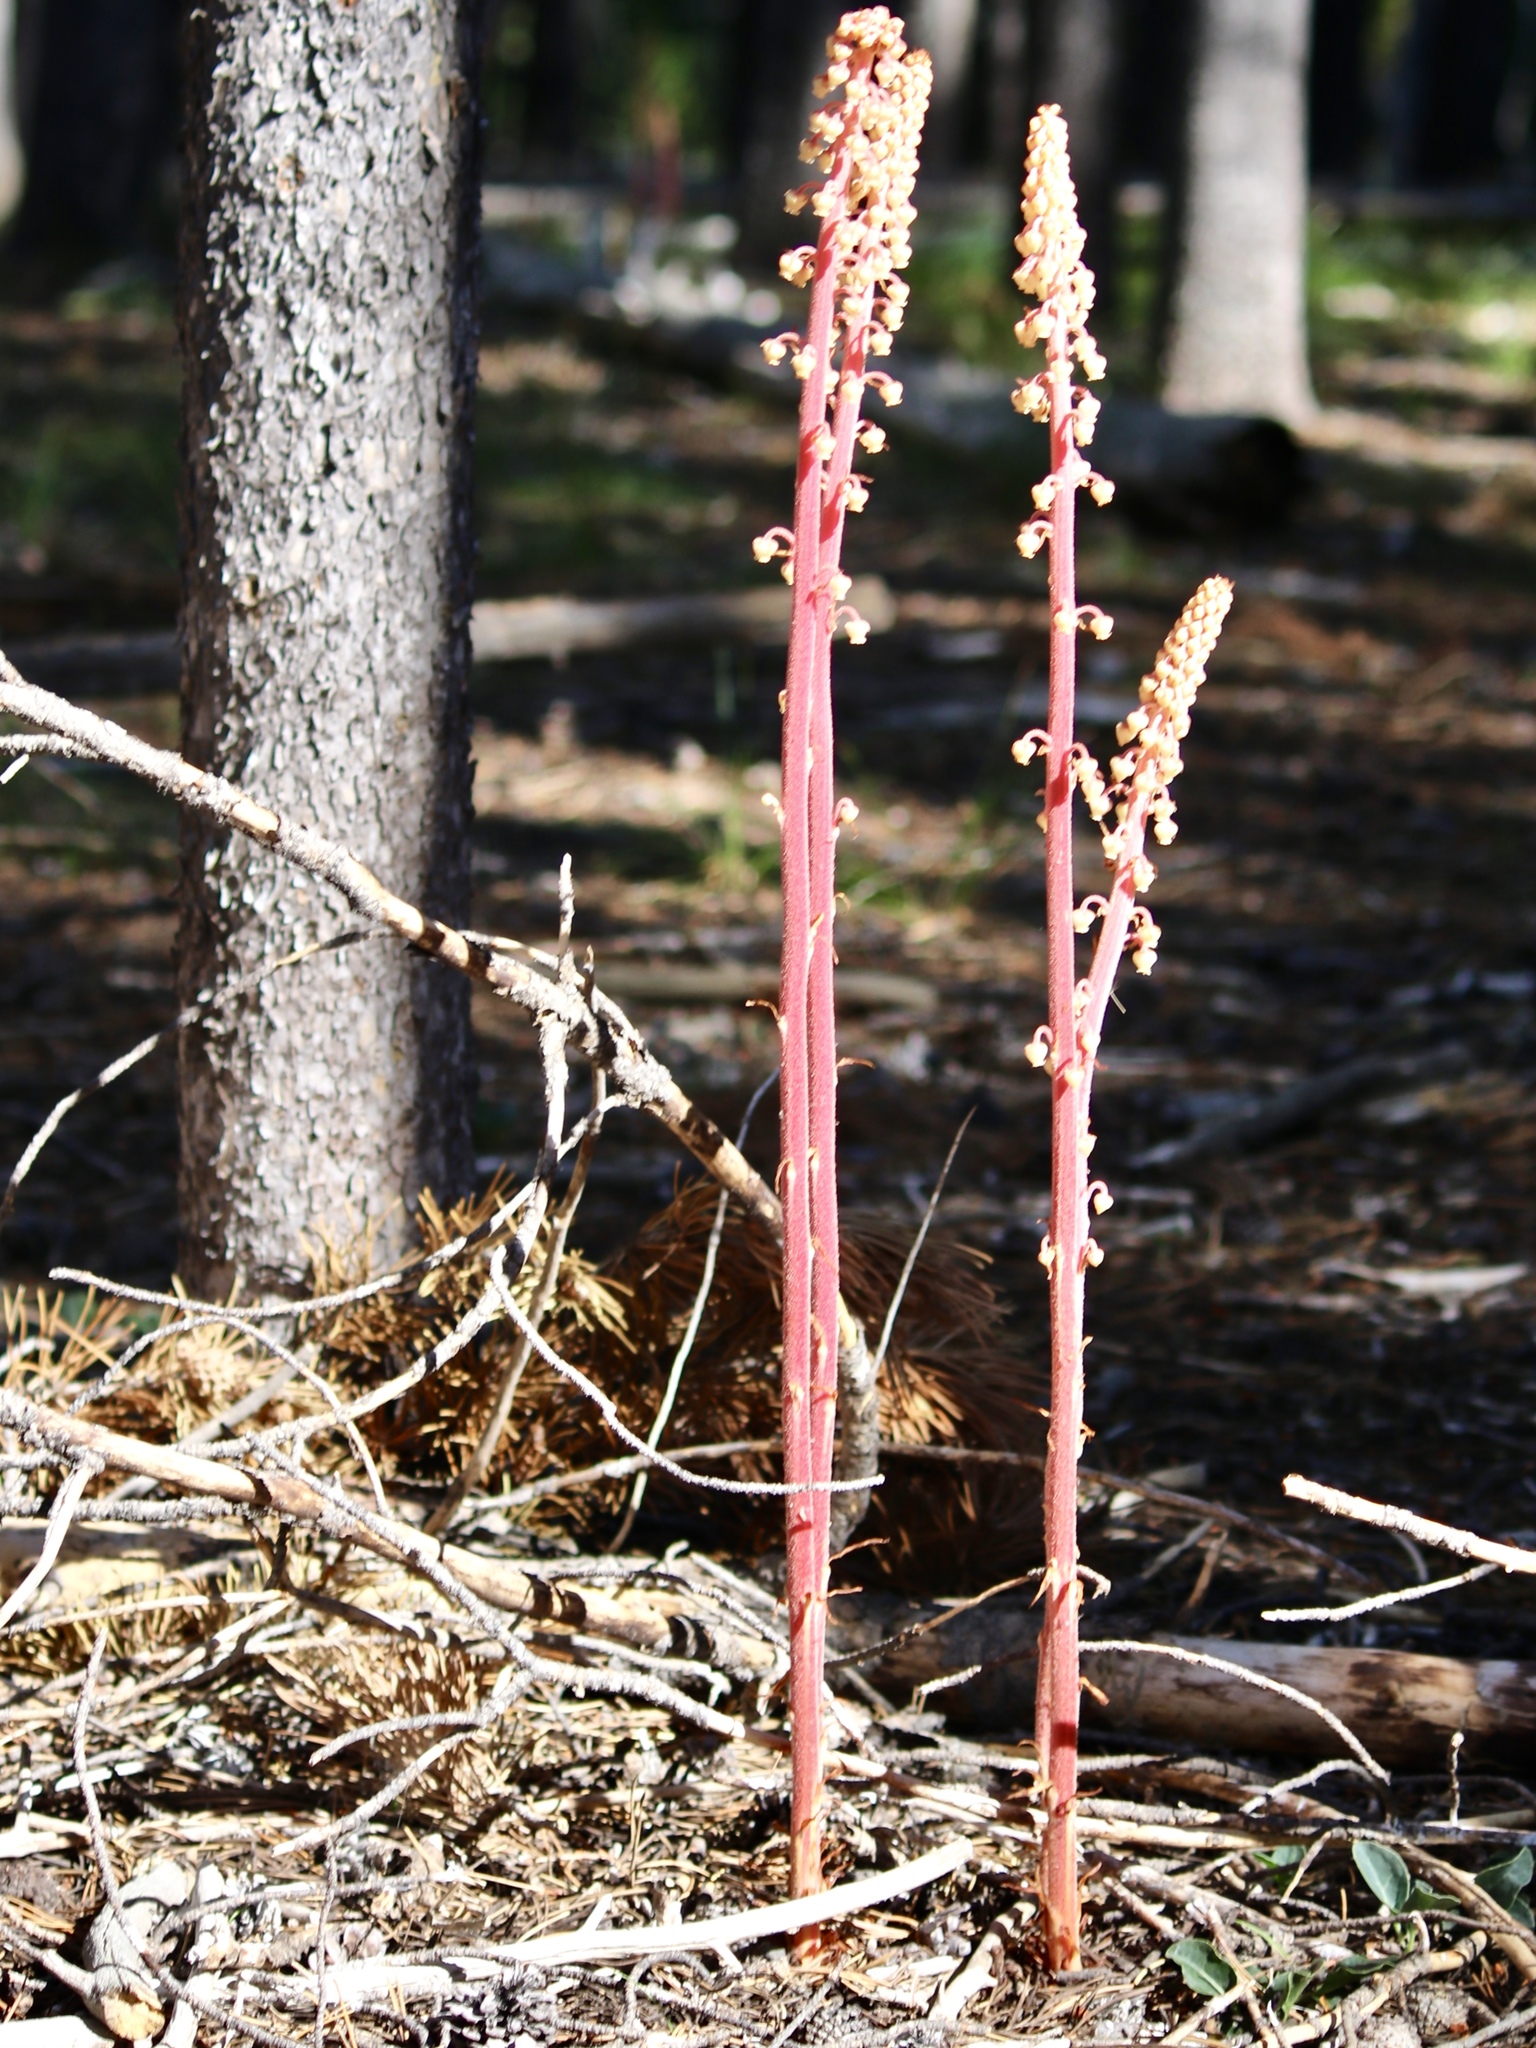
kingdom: Plantae
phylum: Tracheophyta
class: Magnoliopsida
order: Ericales
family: Ericaceae
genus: Pterospora
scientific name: Pterospora andromedea
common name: Giant bird's-nest
